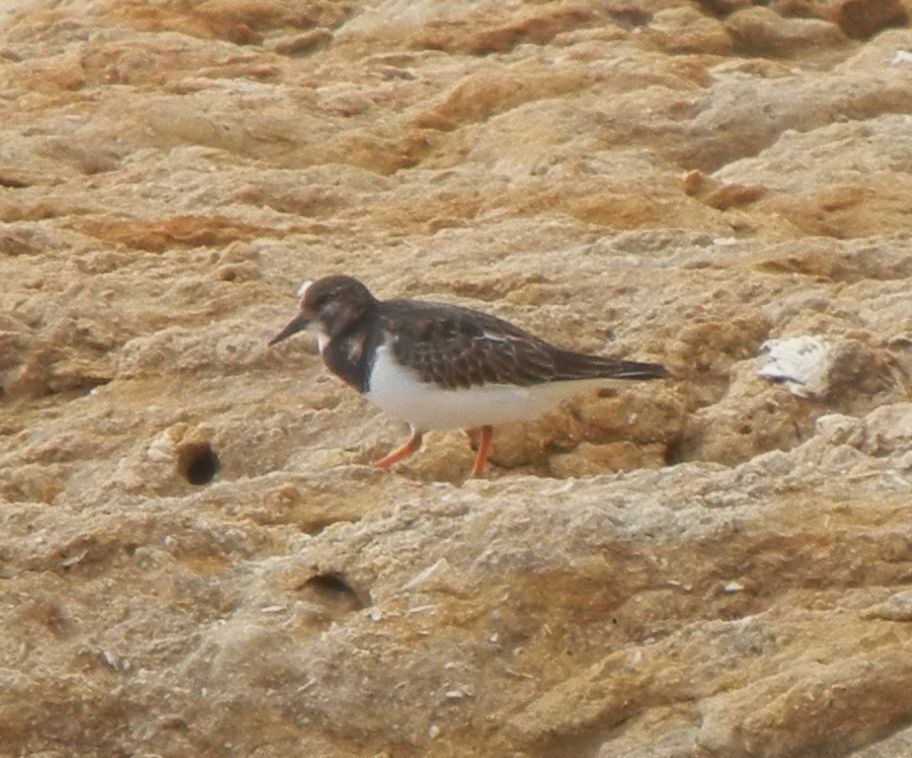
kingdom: Animalia
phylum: Chordata
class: Aves
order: Charadriiformes
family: Scolopacidae
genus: Arenaria
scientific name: Arenaria interpres
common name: Ruddy turnstone
